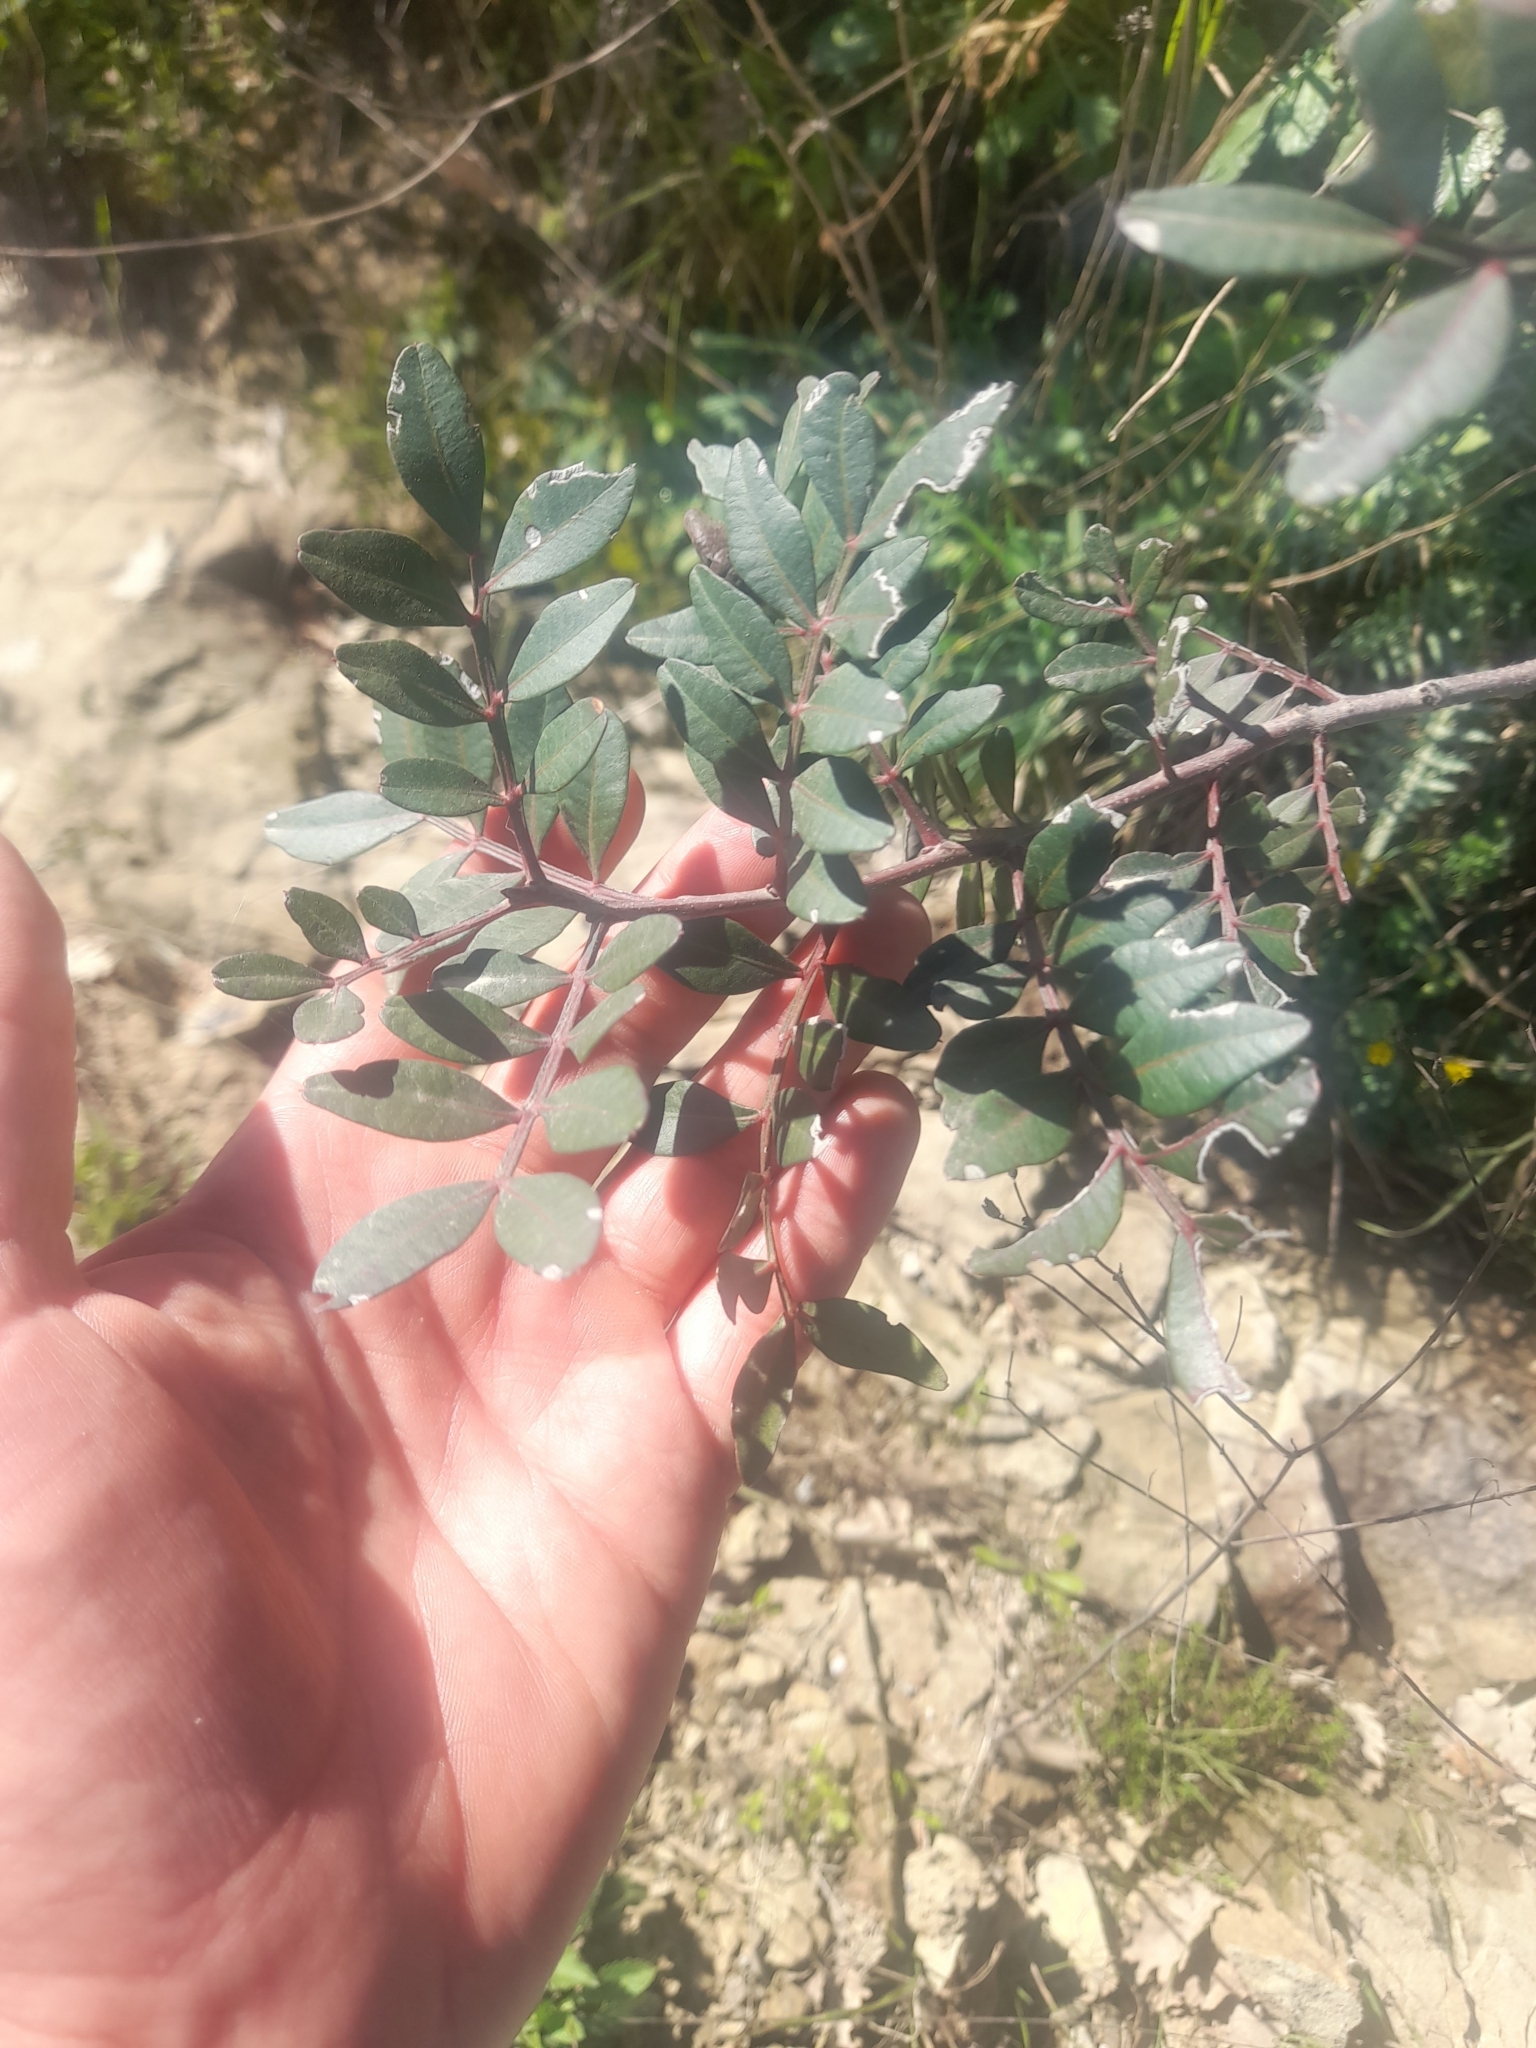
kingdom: Plantae
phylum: Tracheophyta
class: Magnoliopsida
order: Sapindales
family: Anacardiaceae
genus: Pistacia
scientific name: Pistacia lentiscus
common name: Lentisk
